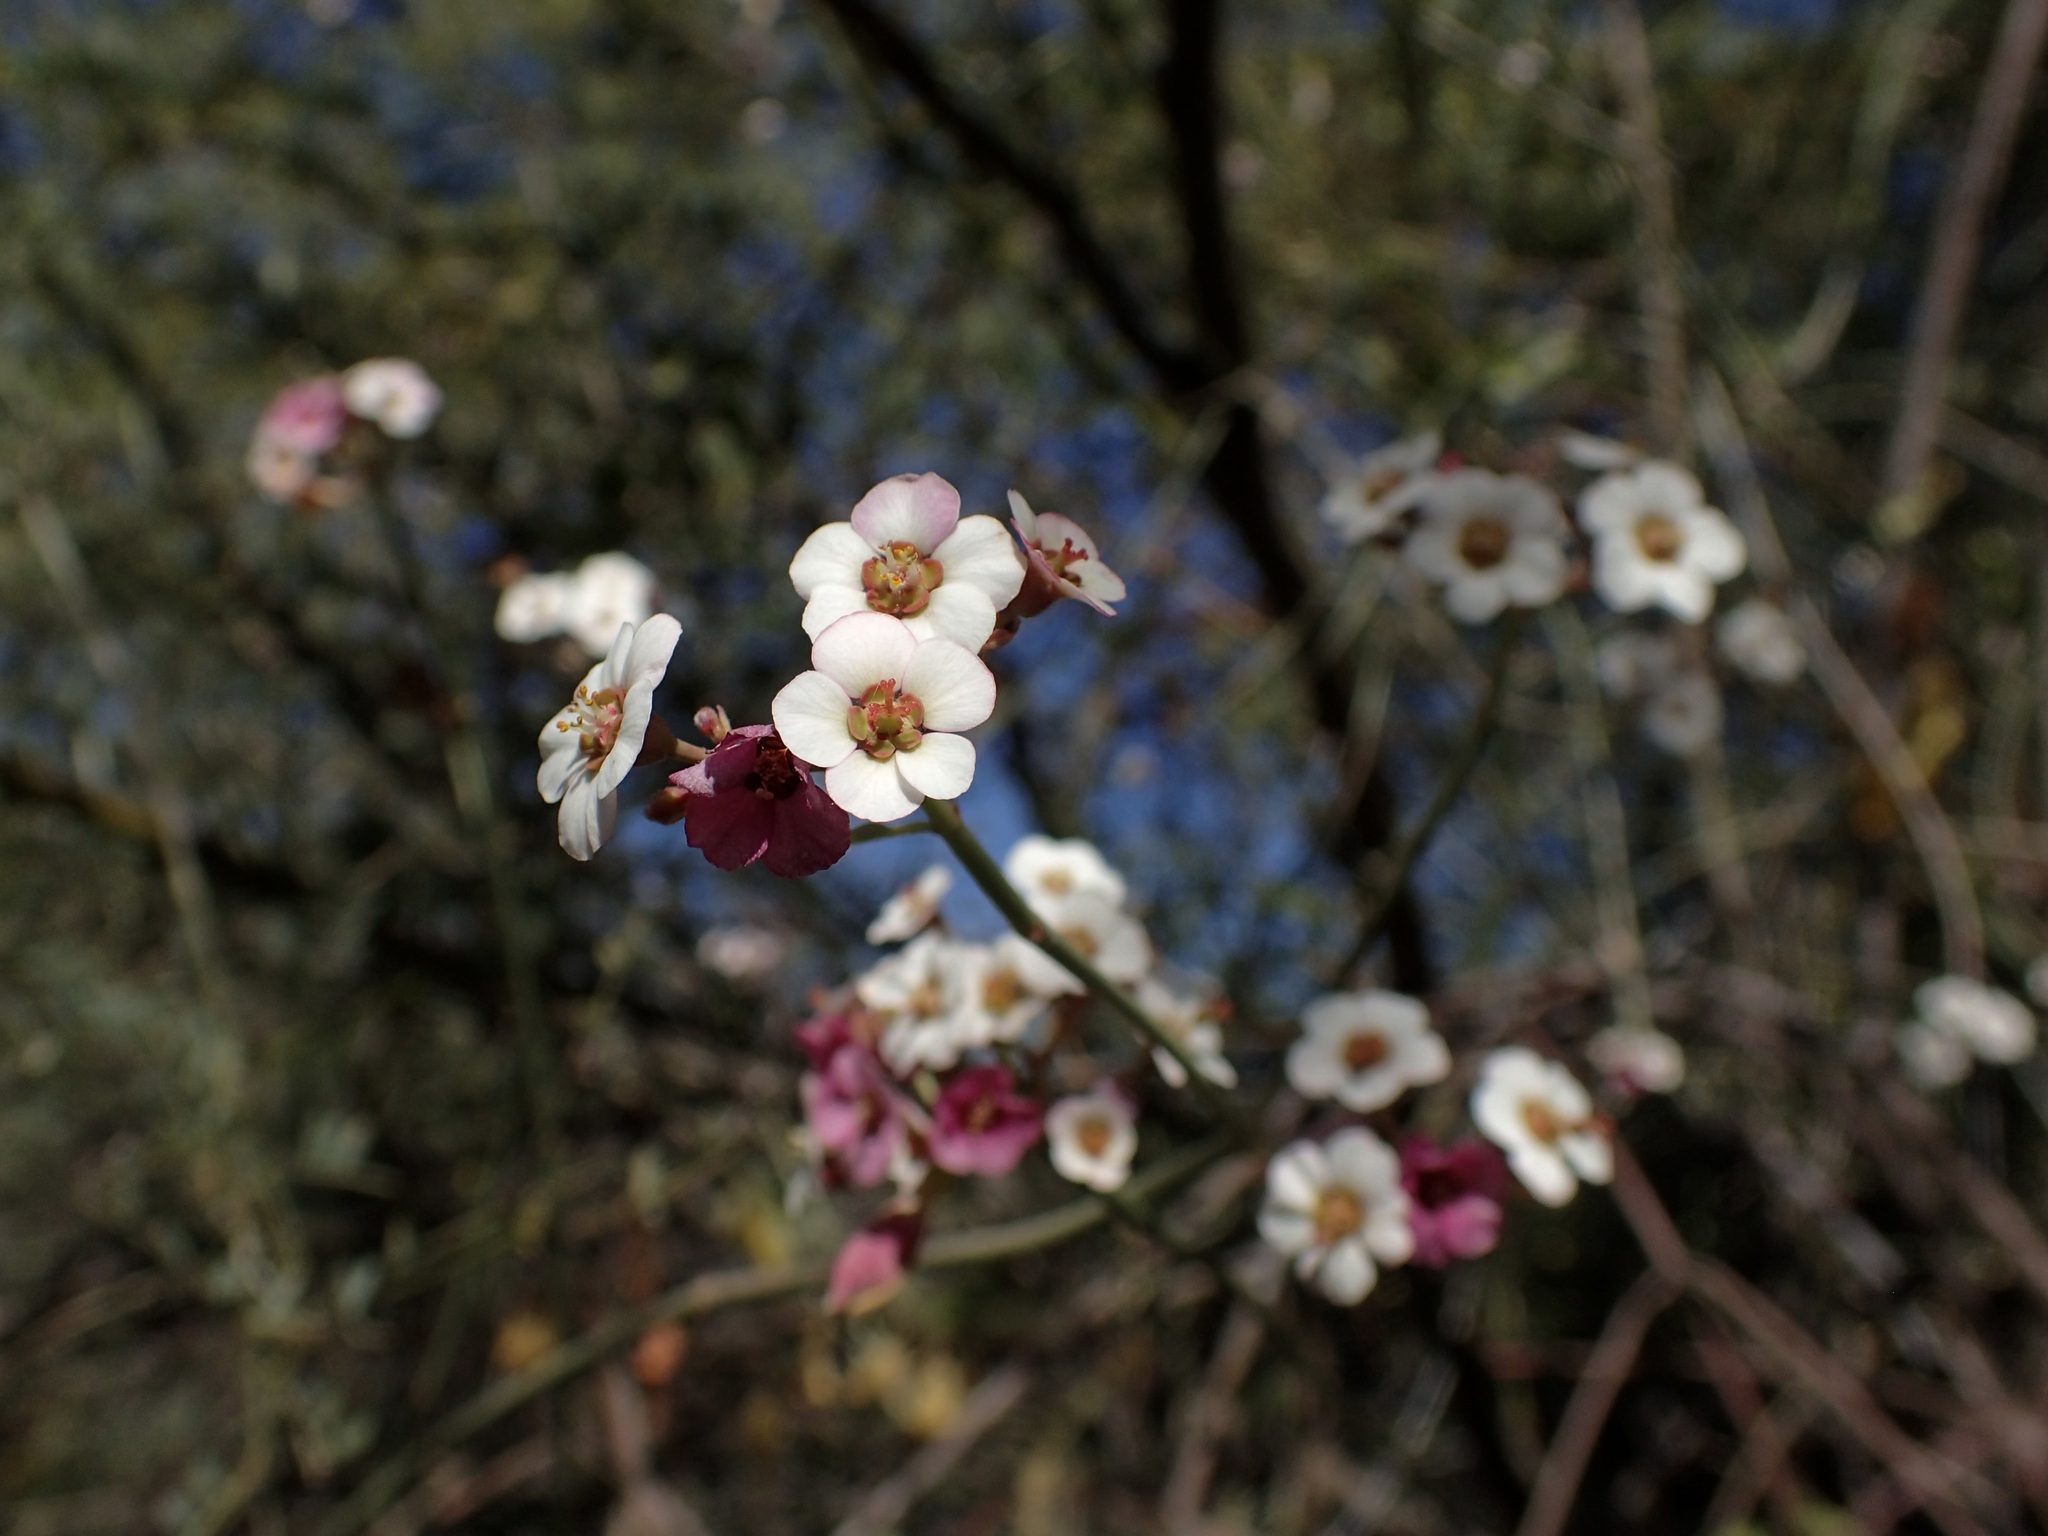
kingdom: Plantae
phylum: Tracheophyta
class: Magnoliopsida
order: Malpighiales
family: Euphorbiaceae
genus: Euphorbia
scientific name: Euphorbia xanti
